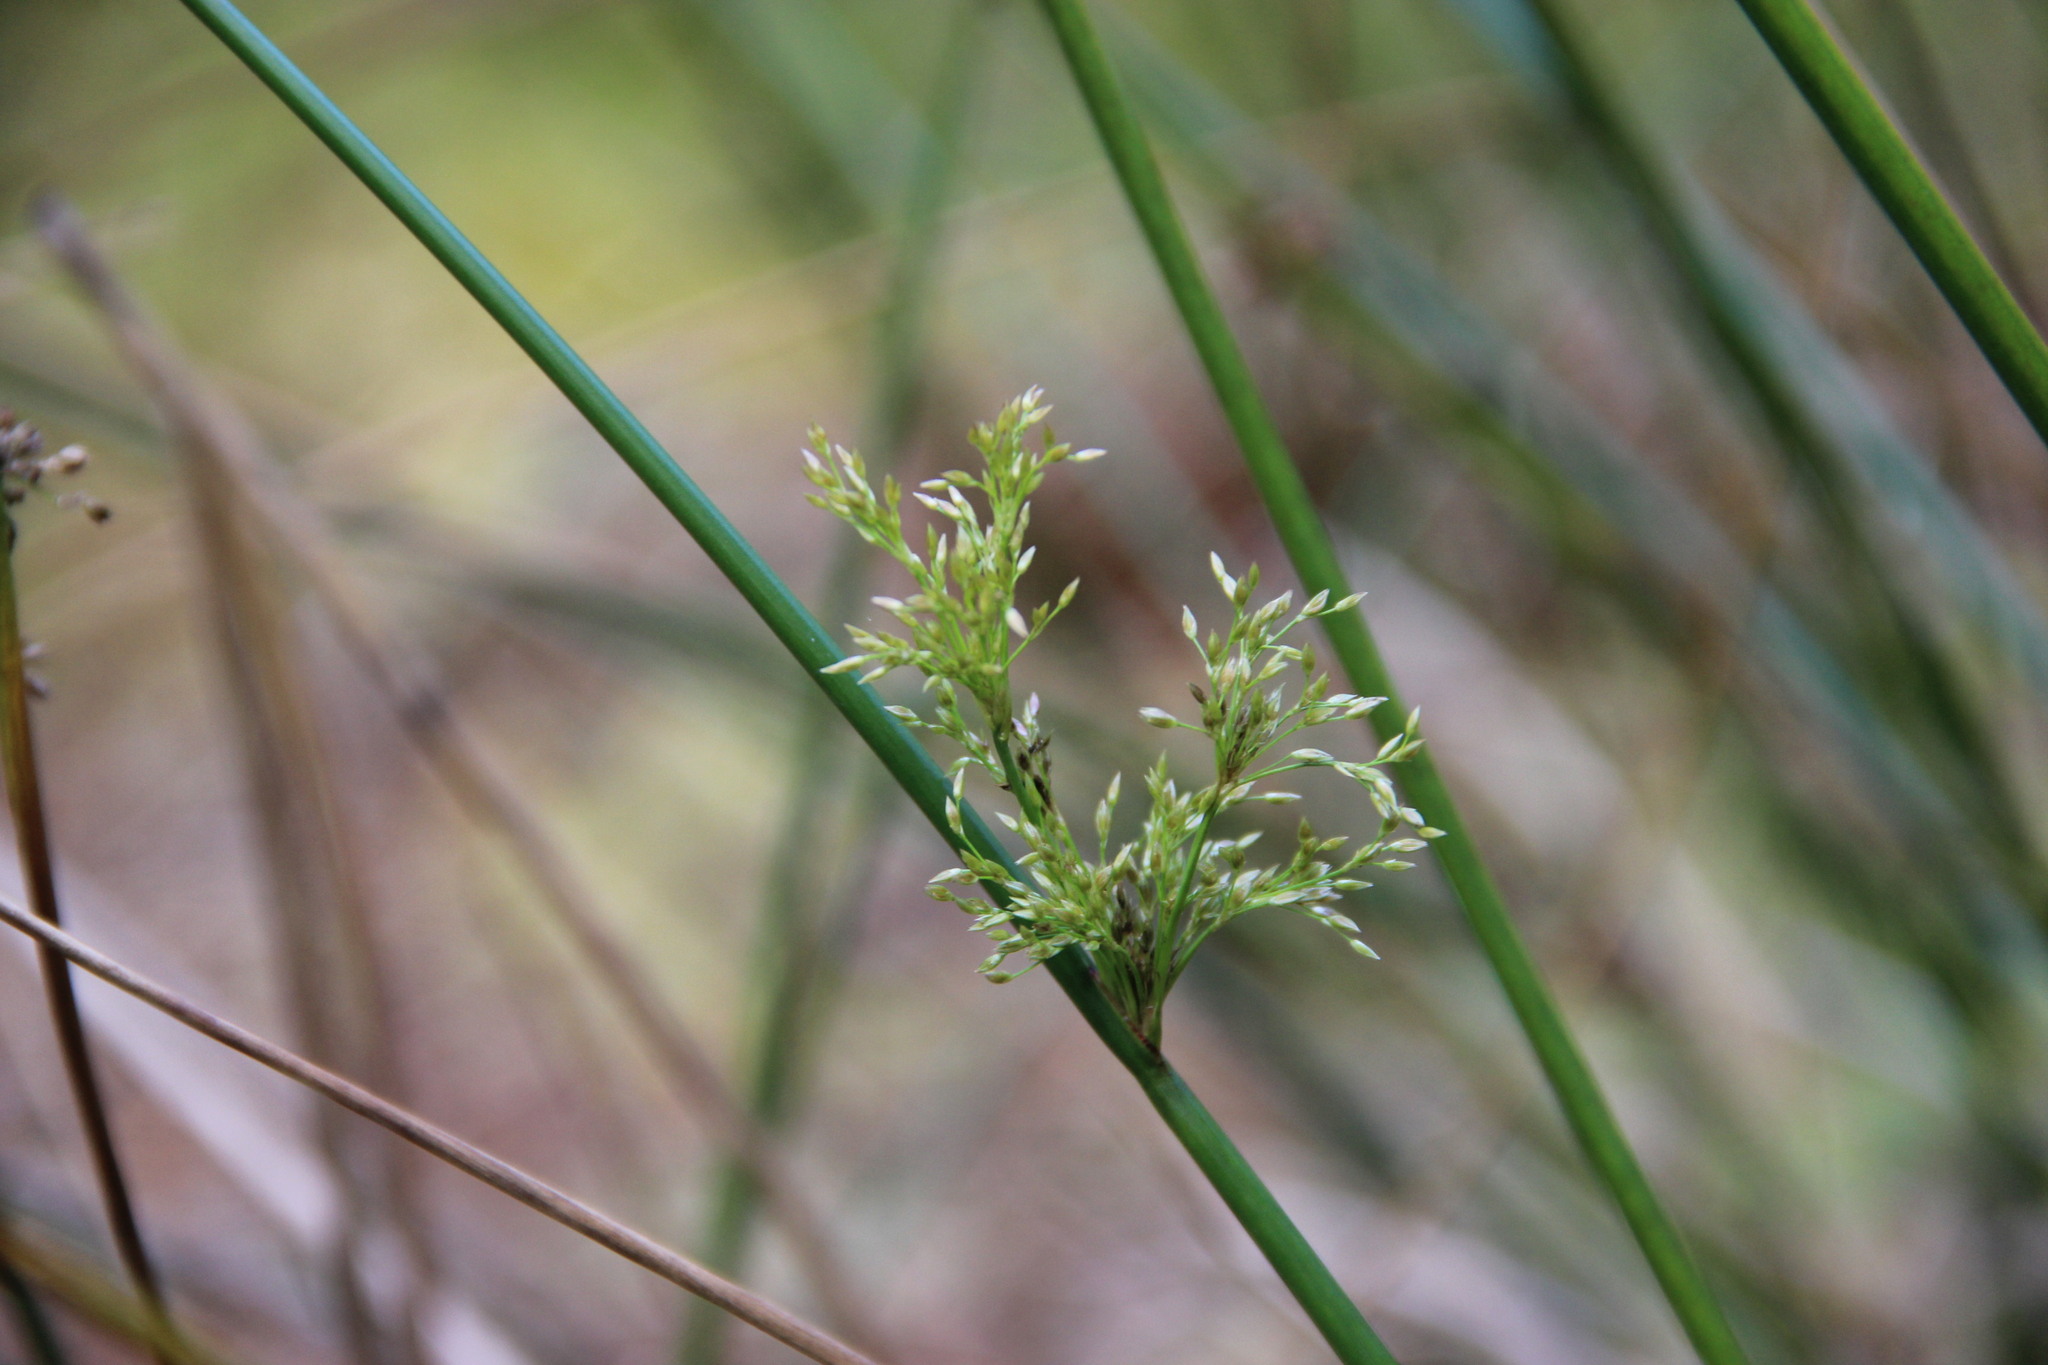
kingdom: Plantae
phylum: Tracheophyta
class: Liliopsida
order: Poales
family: Juncaceae
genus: Juncus
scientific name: Juncus effusus
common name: Soft rush
